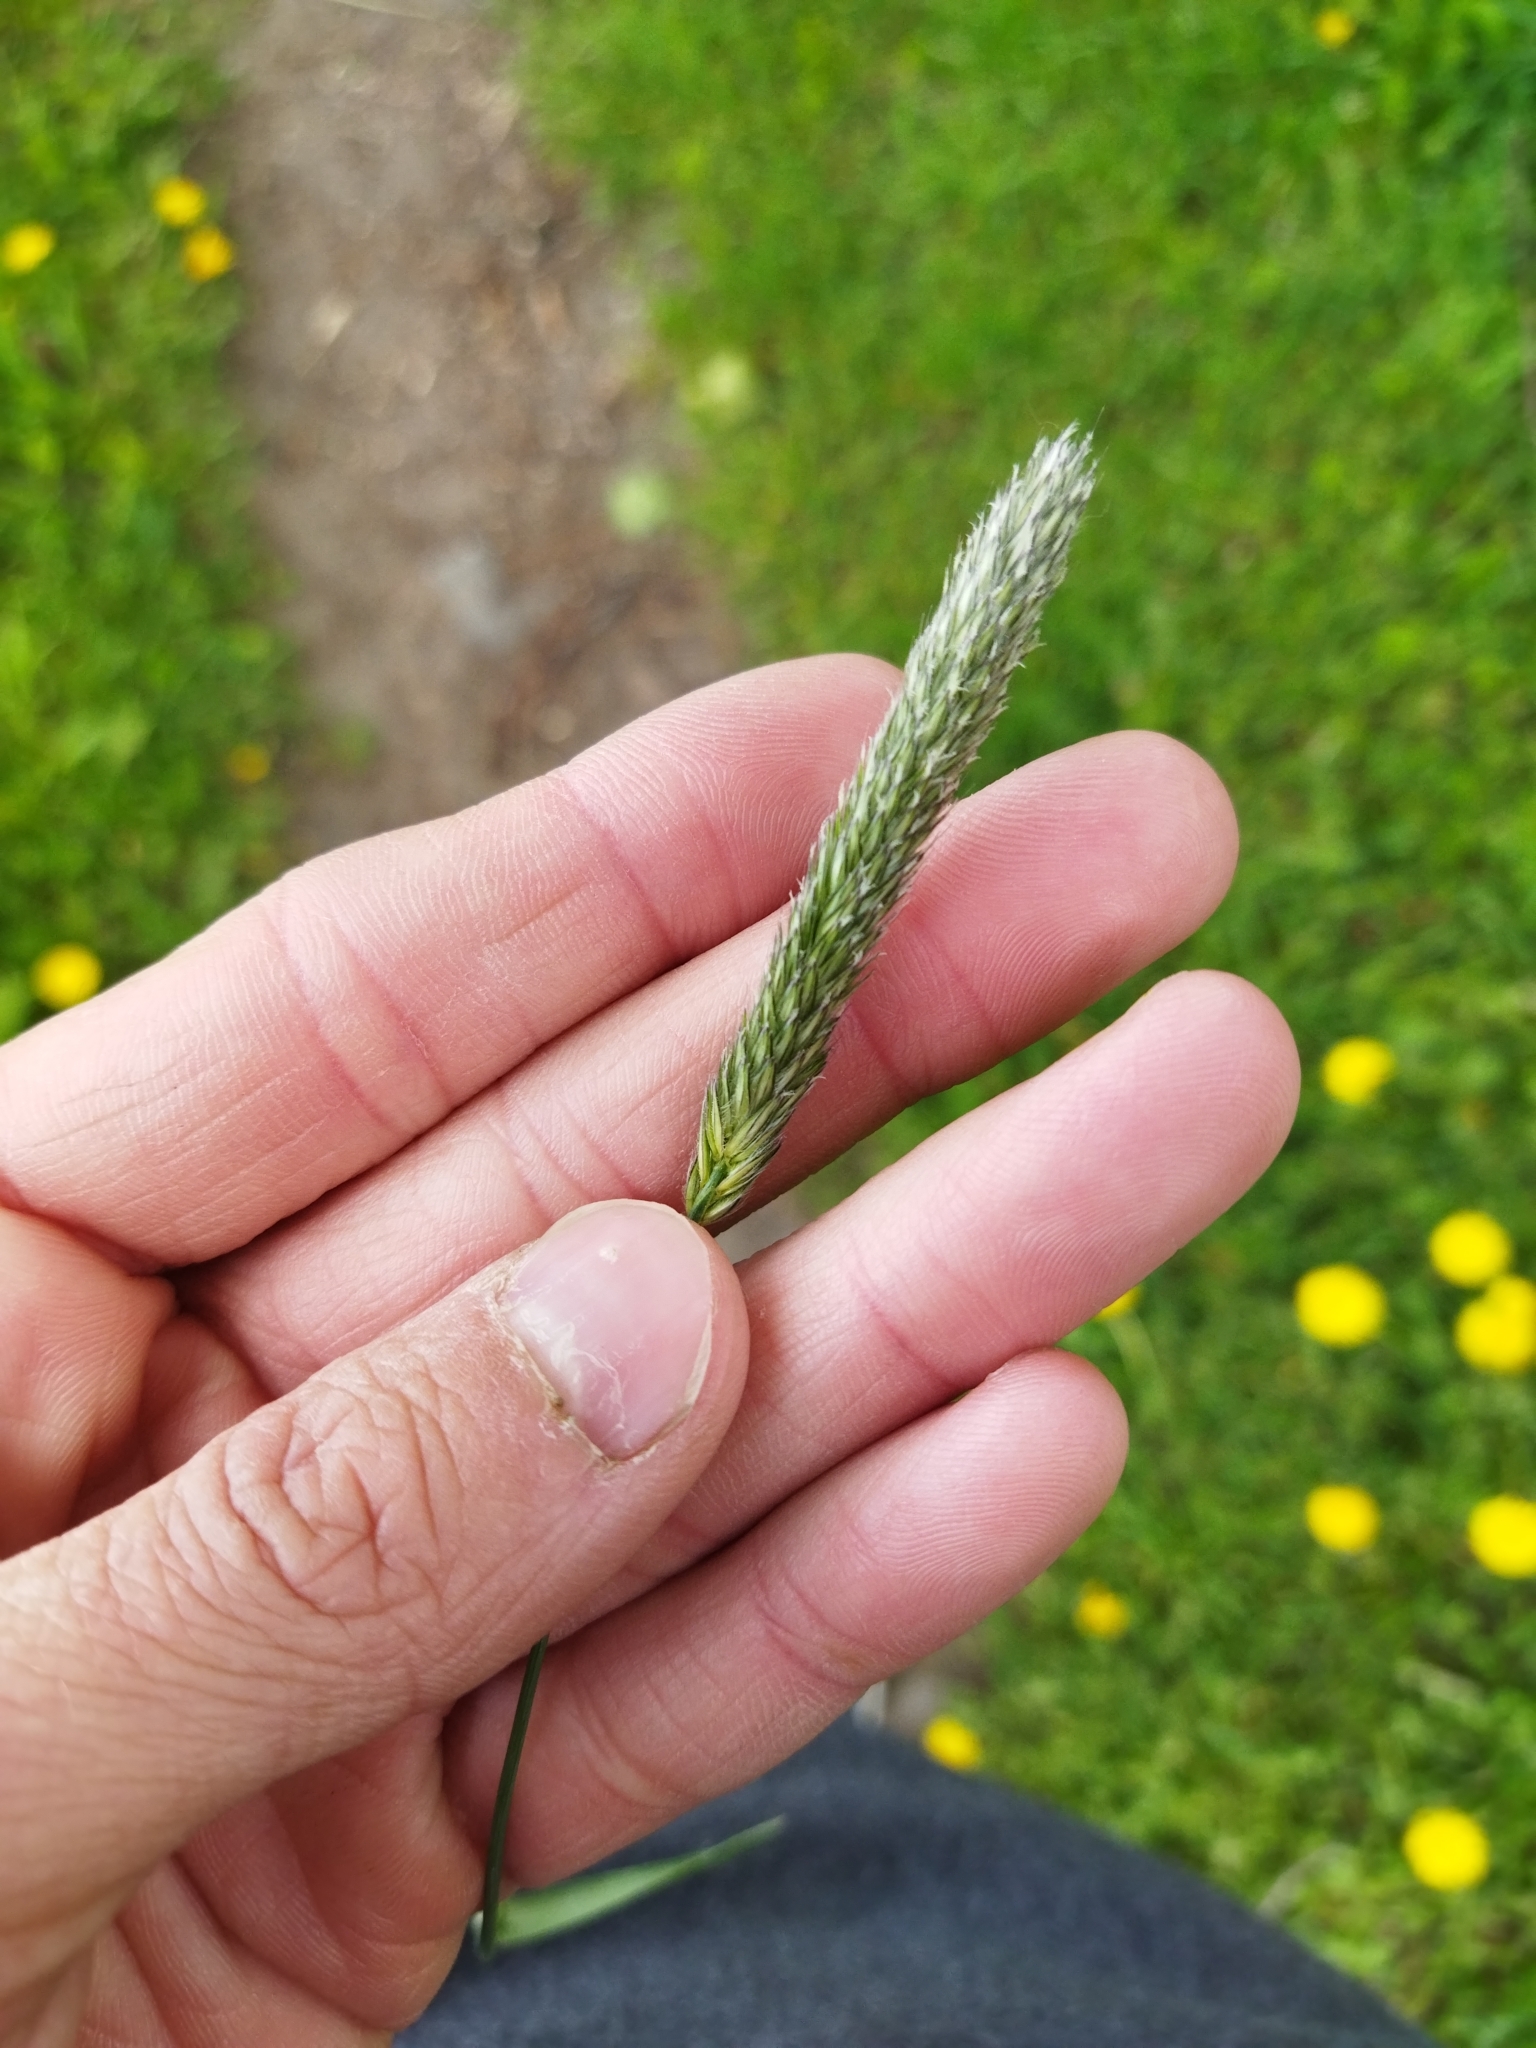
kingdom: Plantae
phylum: Tracheophyta
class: Liliopsida
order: Poales
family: Poaceae
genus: Alopecurus
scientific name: Alopecurus pratensis
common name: Meadow foxtail
